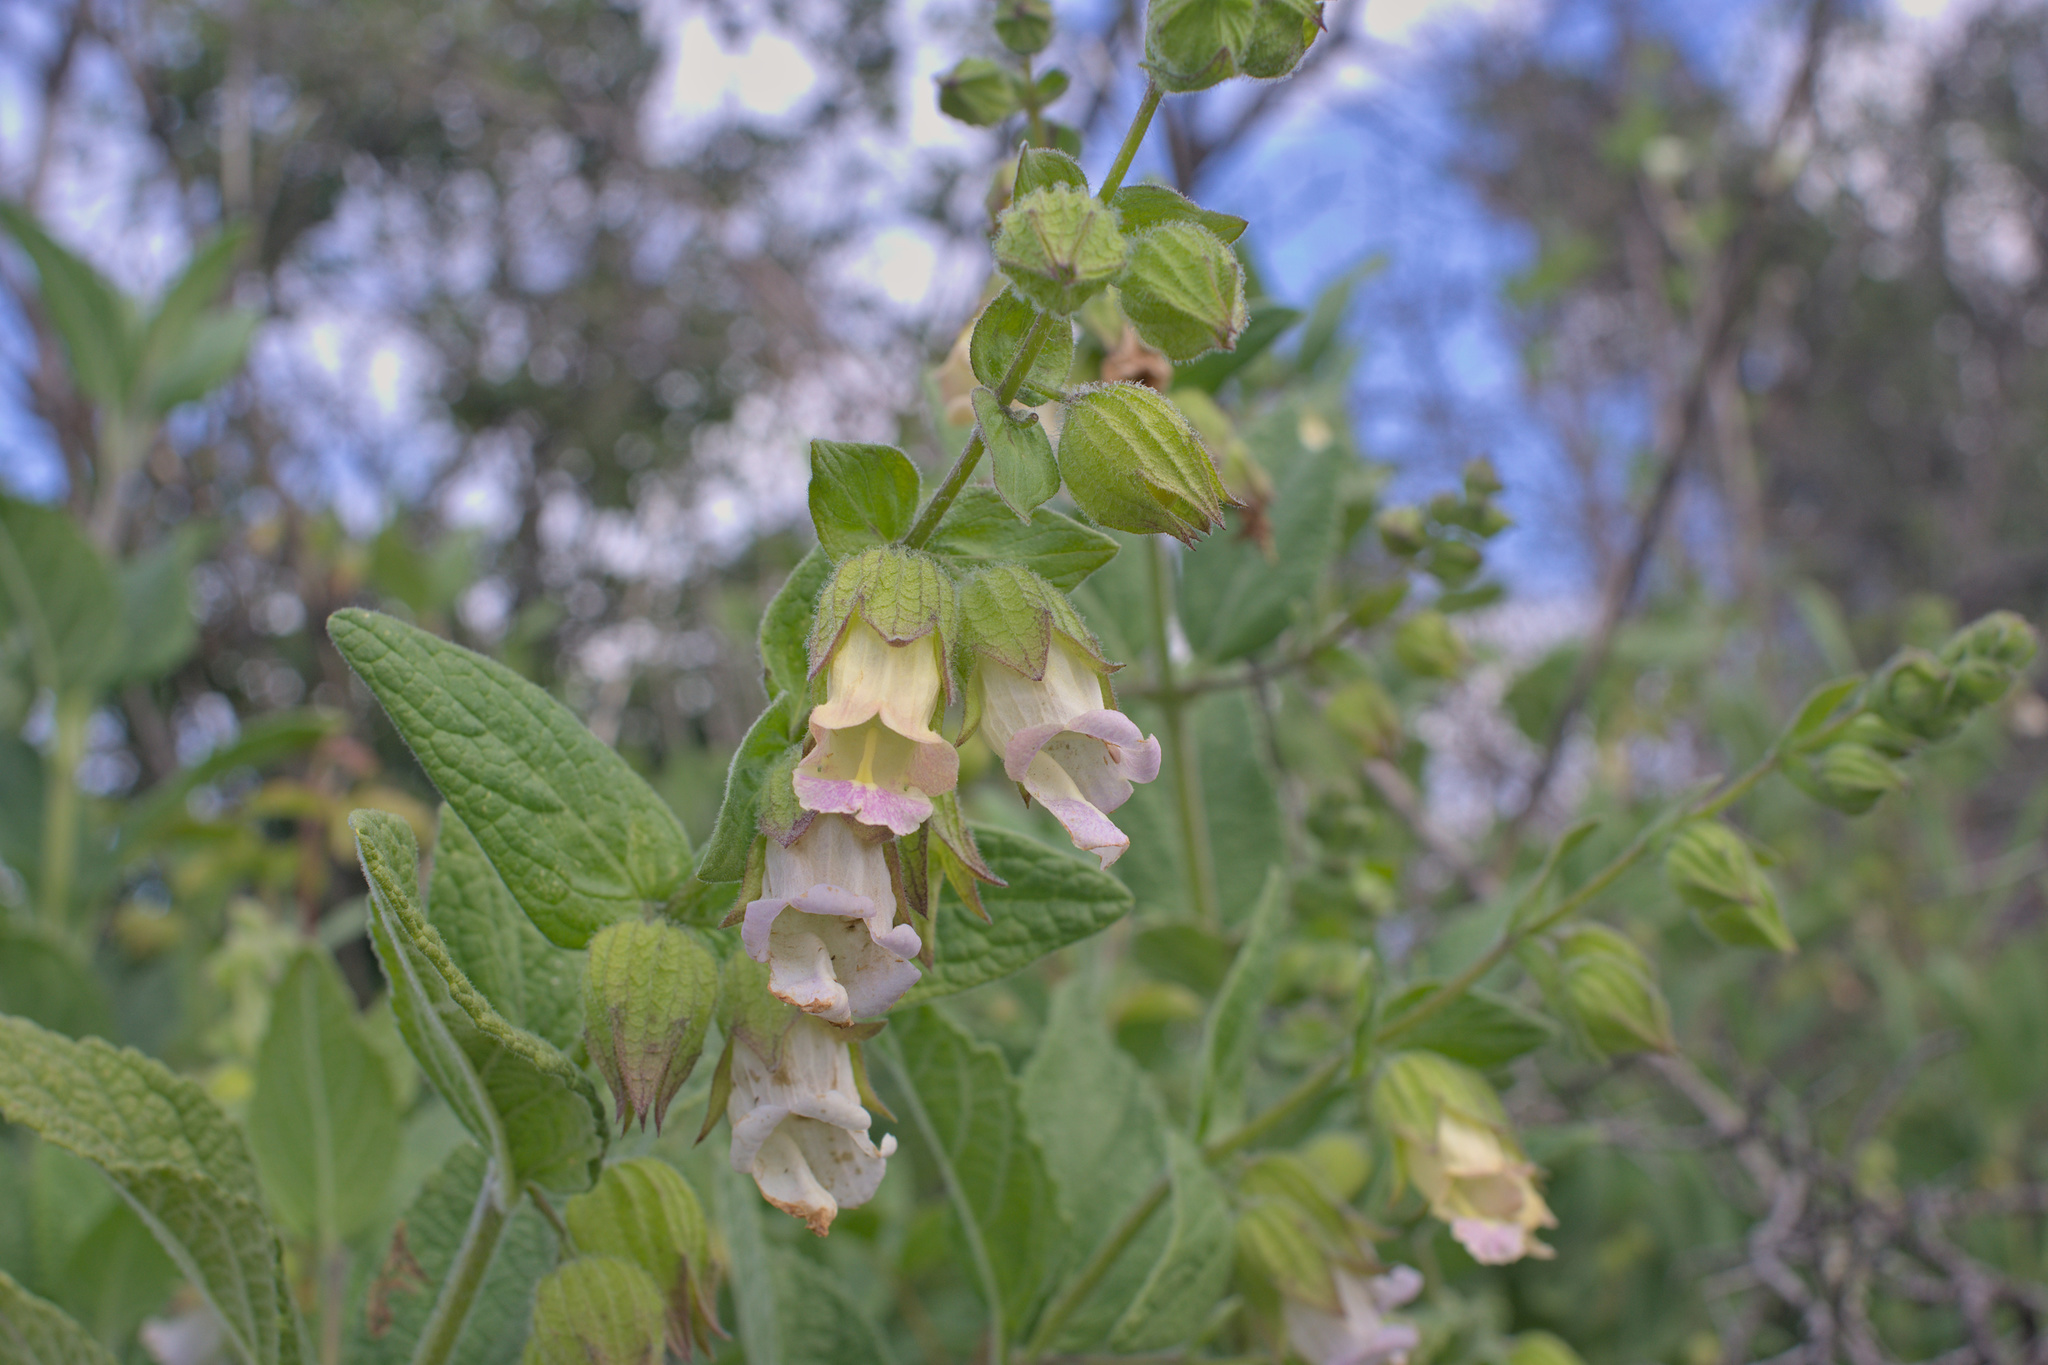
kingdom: Plantae
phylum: Tracheophyta
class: Magnoliopsida
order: Lamiales
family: Lamiaceae
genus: Lepechinia
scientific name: Lepechinia calycina
